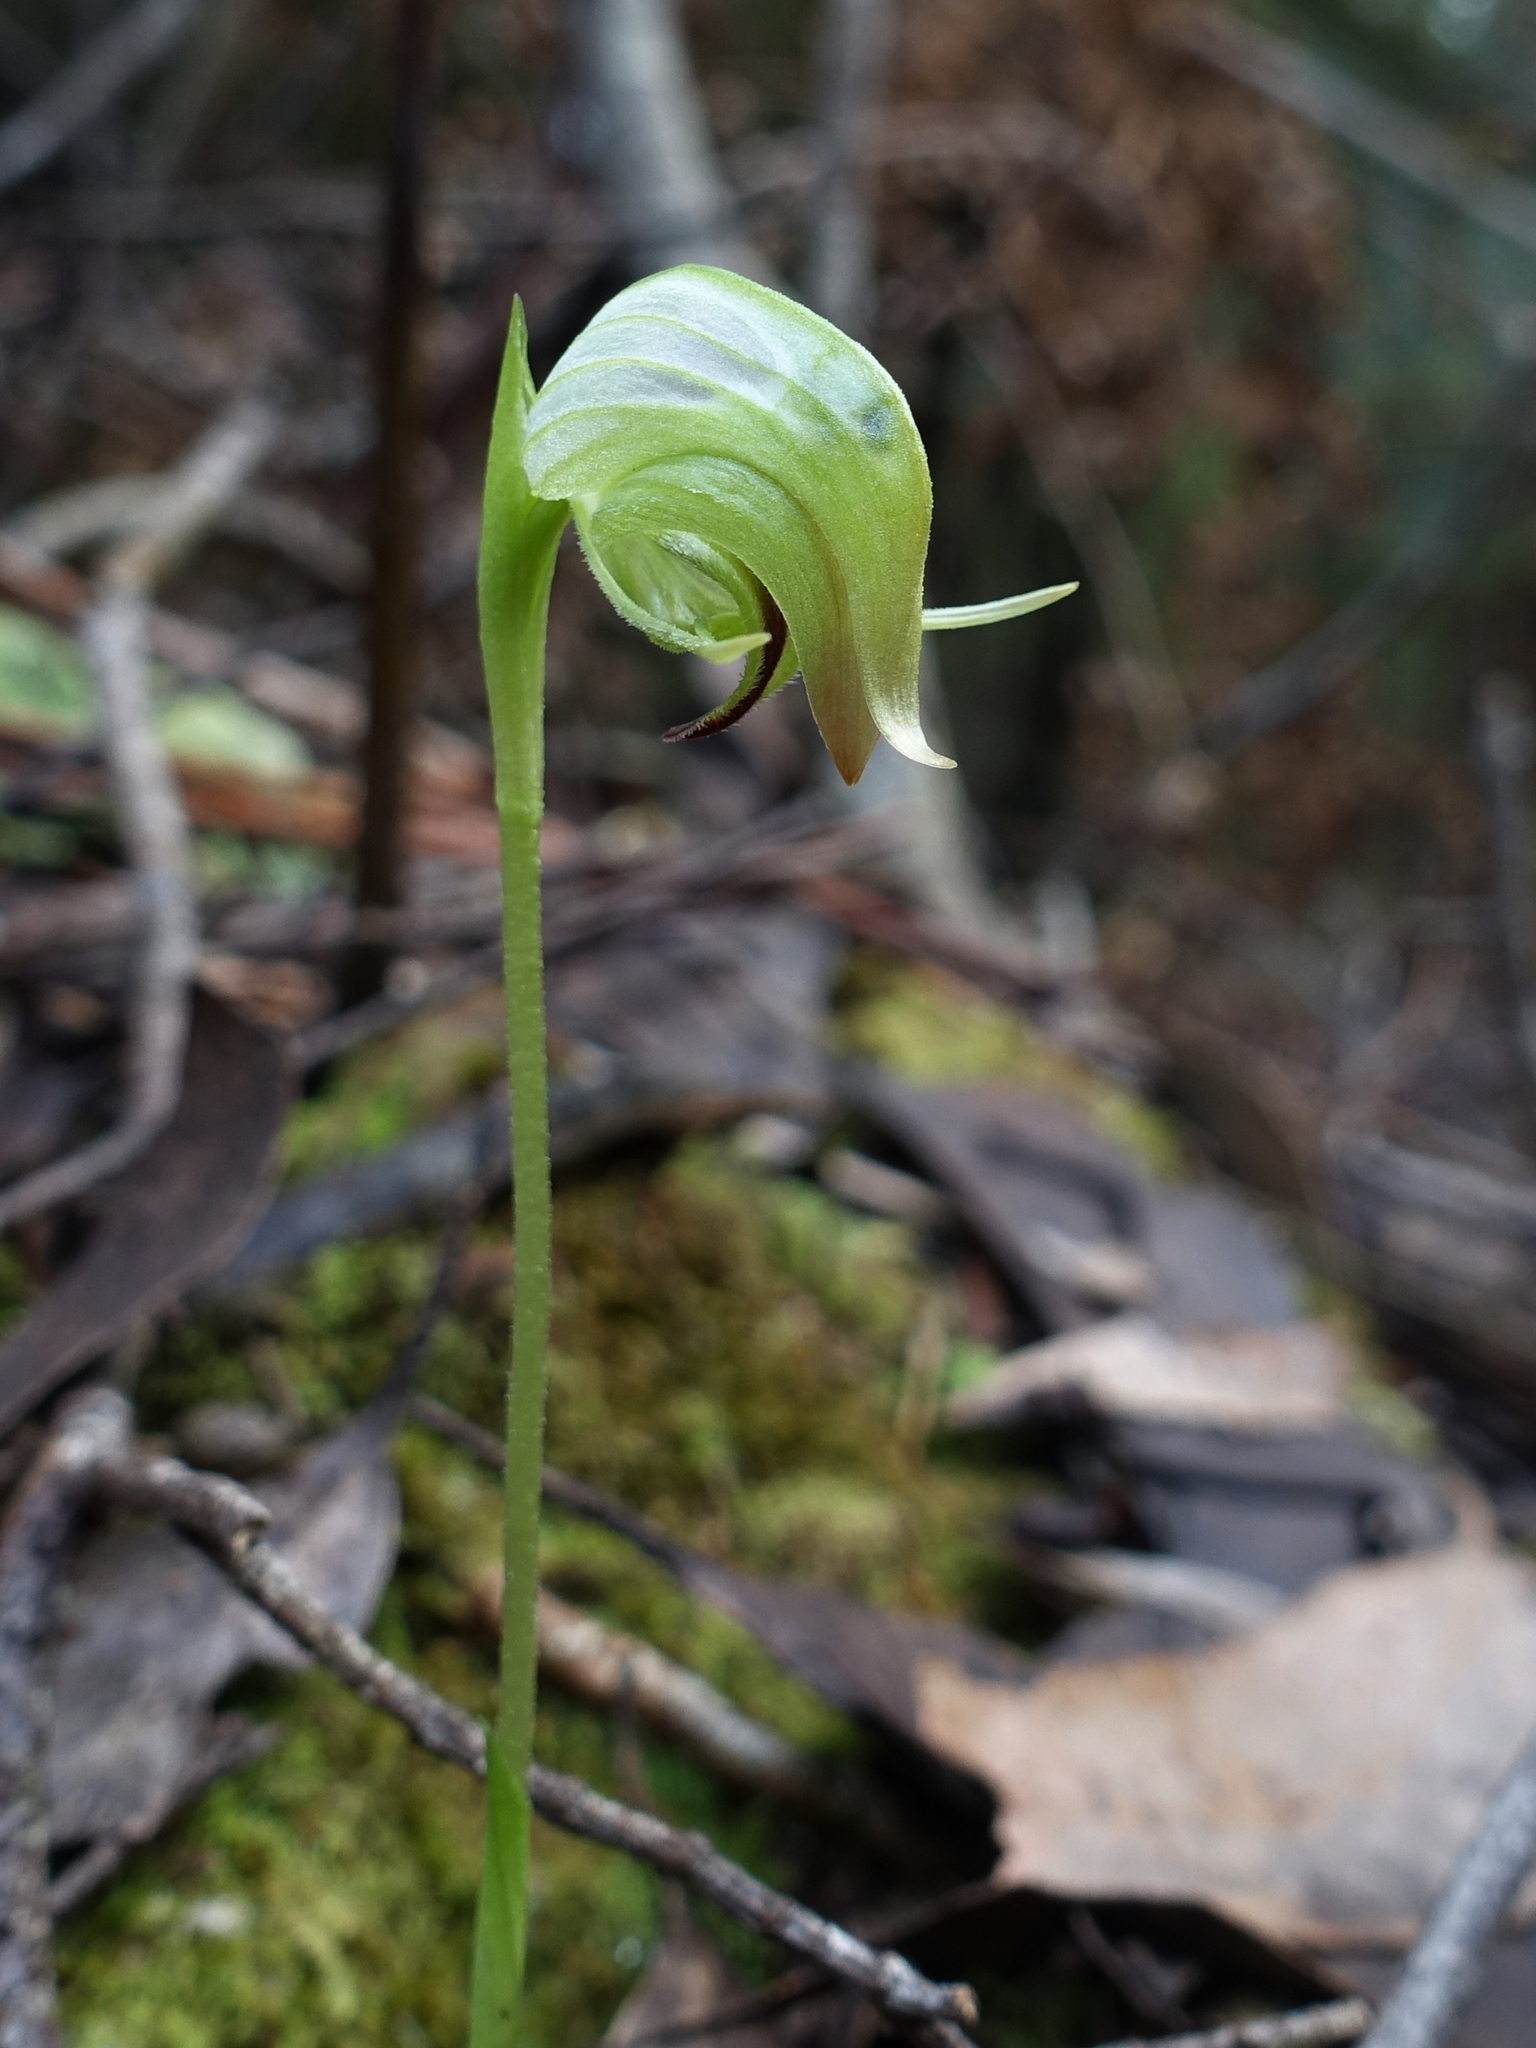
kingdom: Plantae
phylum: Tracheophyta
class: Liliopsida
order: Asparagales
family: Orchidaceae
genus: Pterostylis
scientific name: Pterostylis nutans
